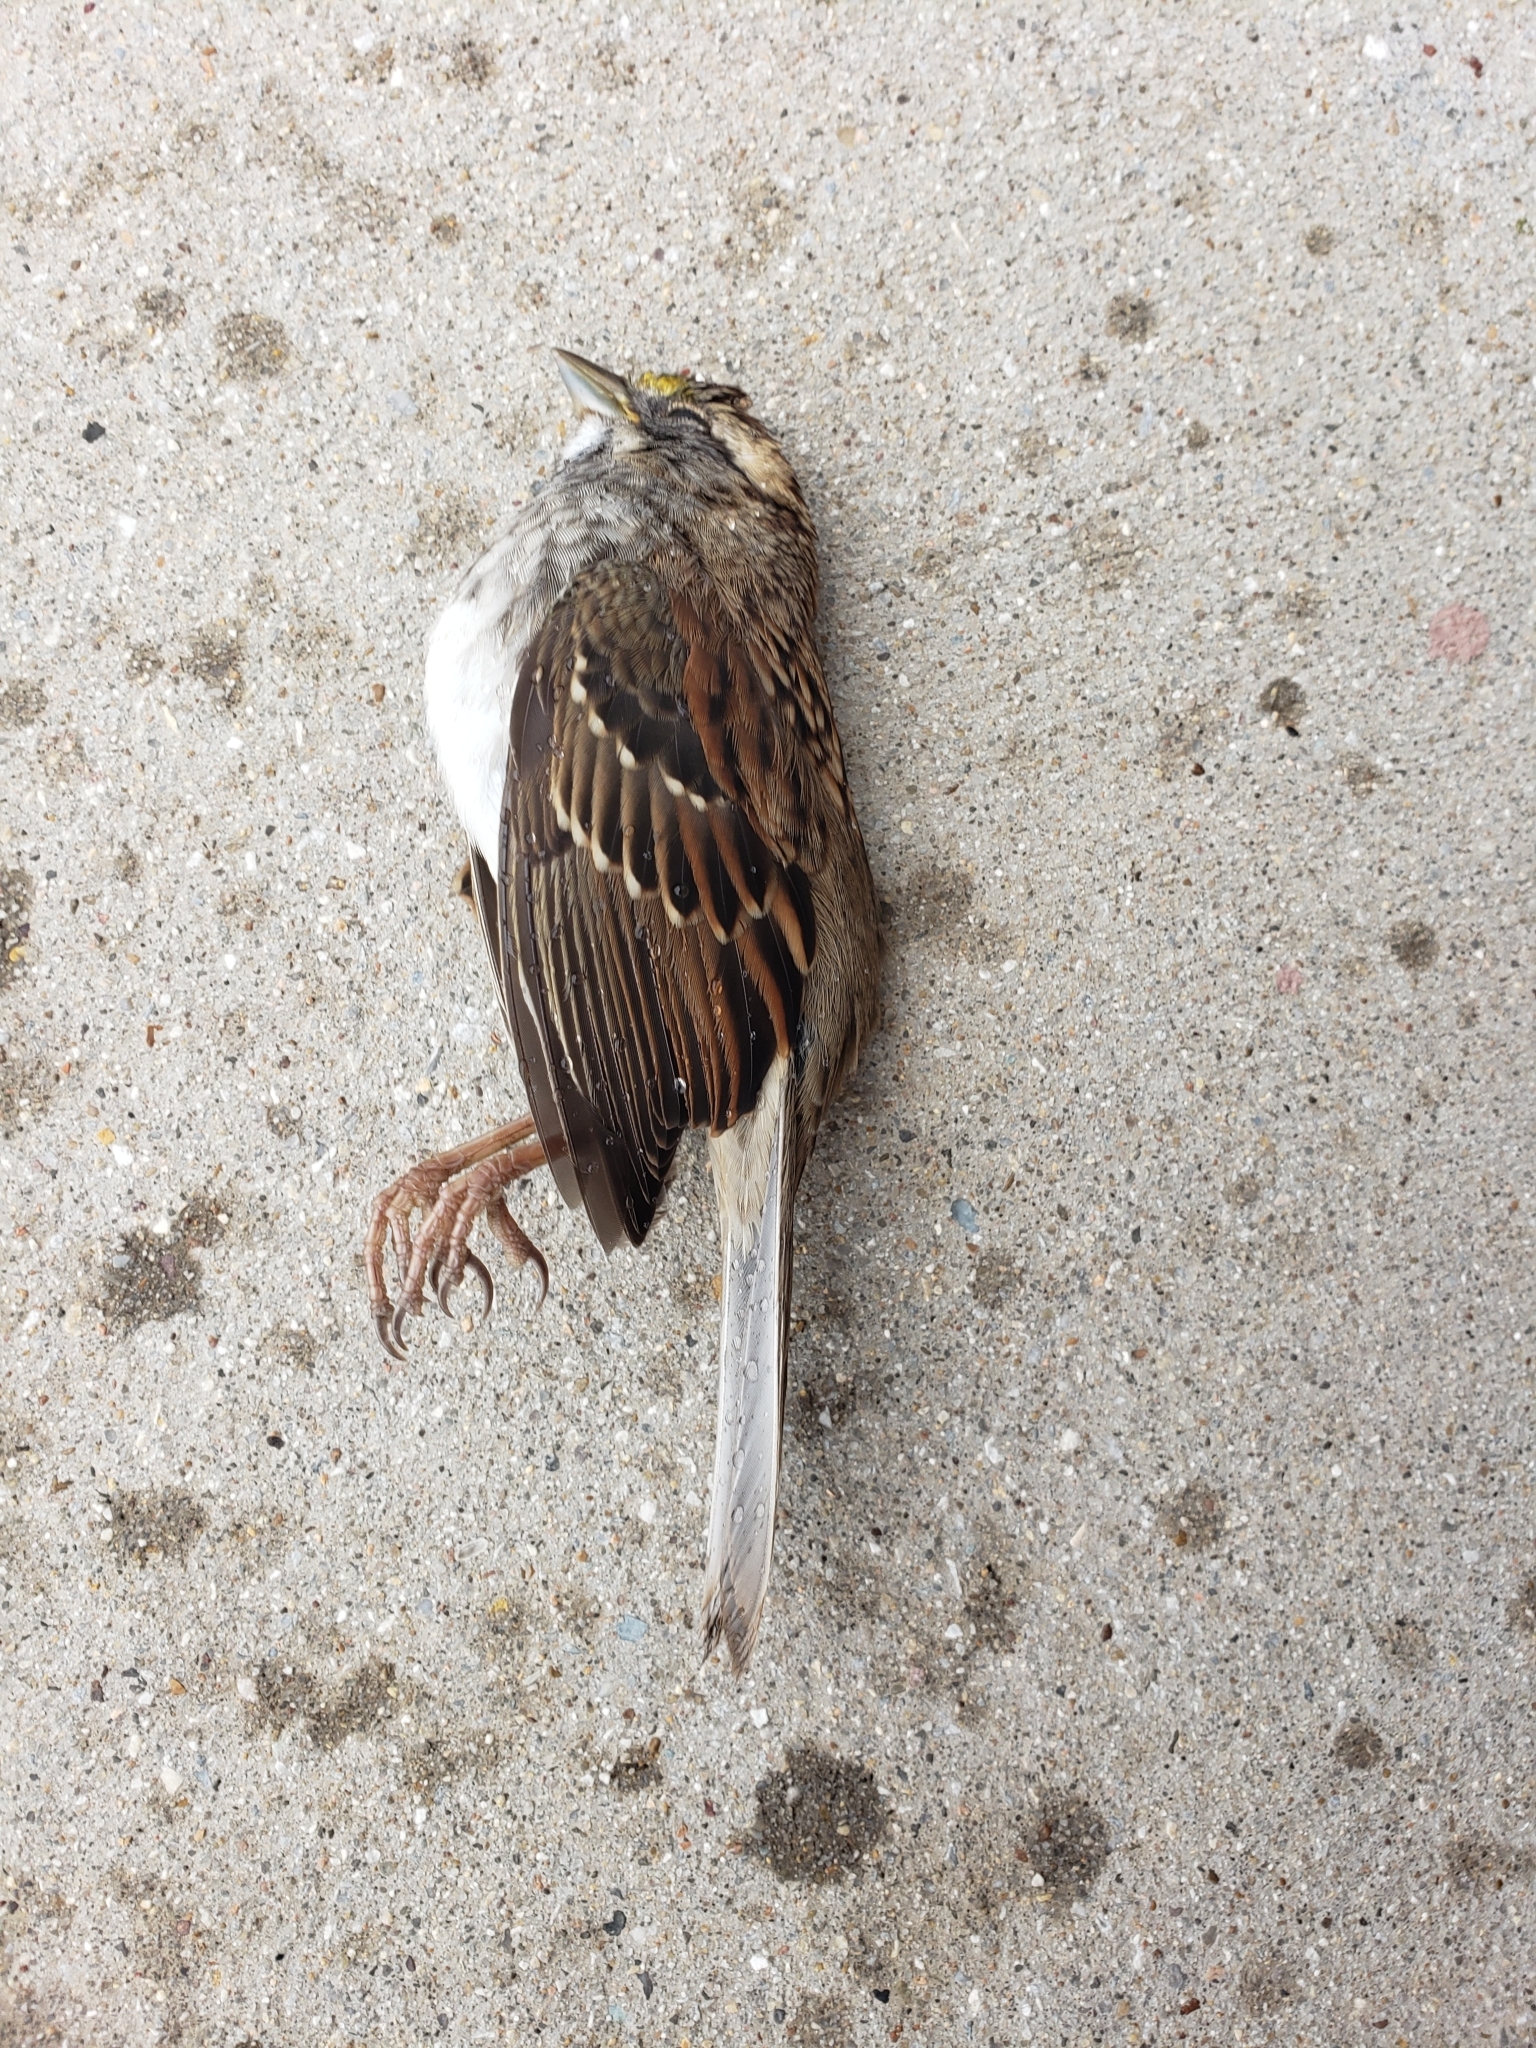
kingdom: Animalia
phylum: Chordata
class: Aves
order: Passeriformes
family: Passerellidae
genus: Zonotrichia
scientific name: Zonotrichia albicollis
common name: White-throated sparrow
